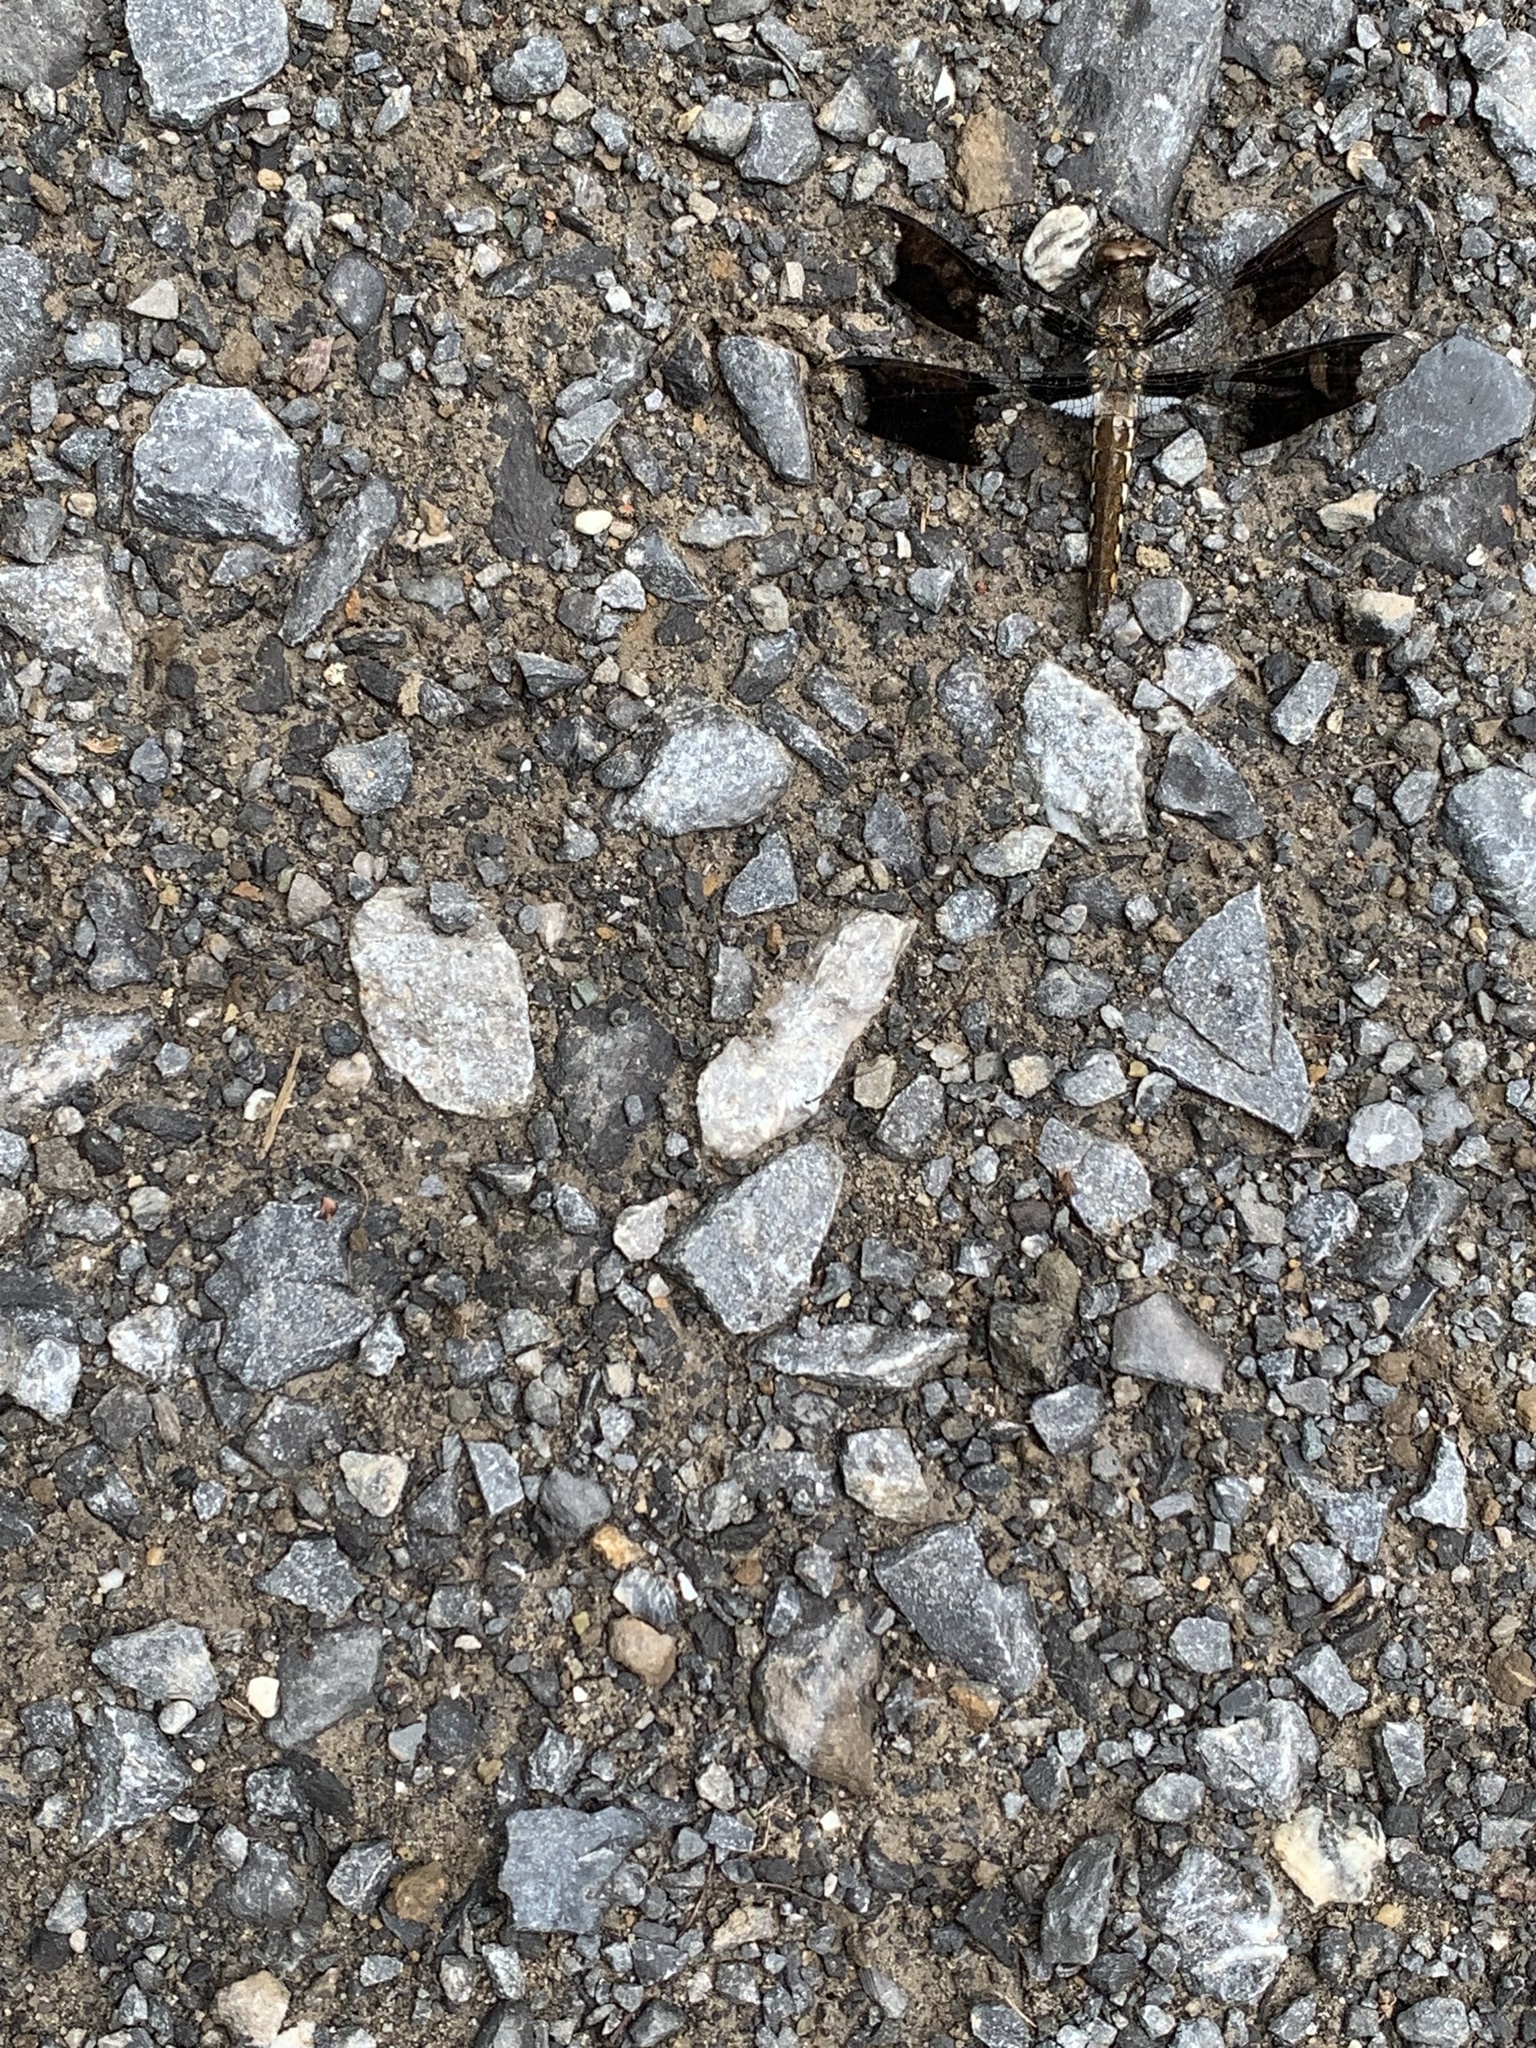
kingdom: Animalia
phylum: Arthropoda
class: Insecta
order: Odonata
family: Libellulidae
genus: Plathemis
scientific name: Plathemis lydia
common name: Common whitetail
